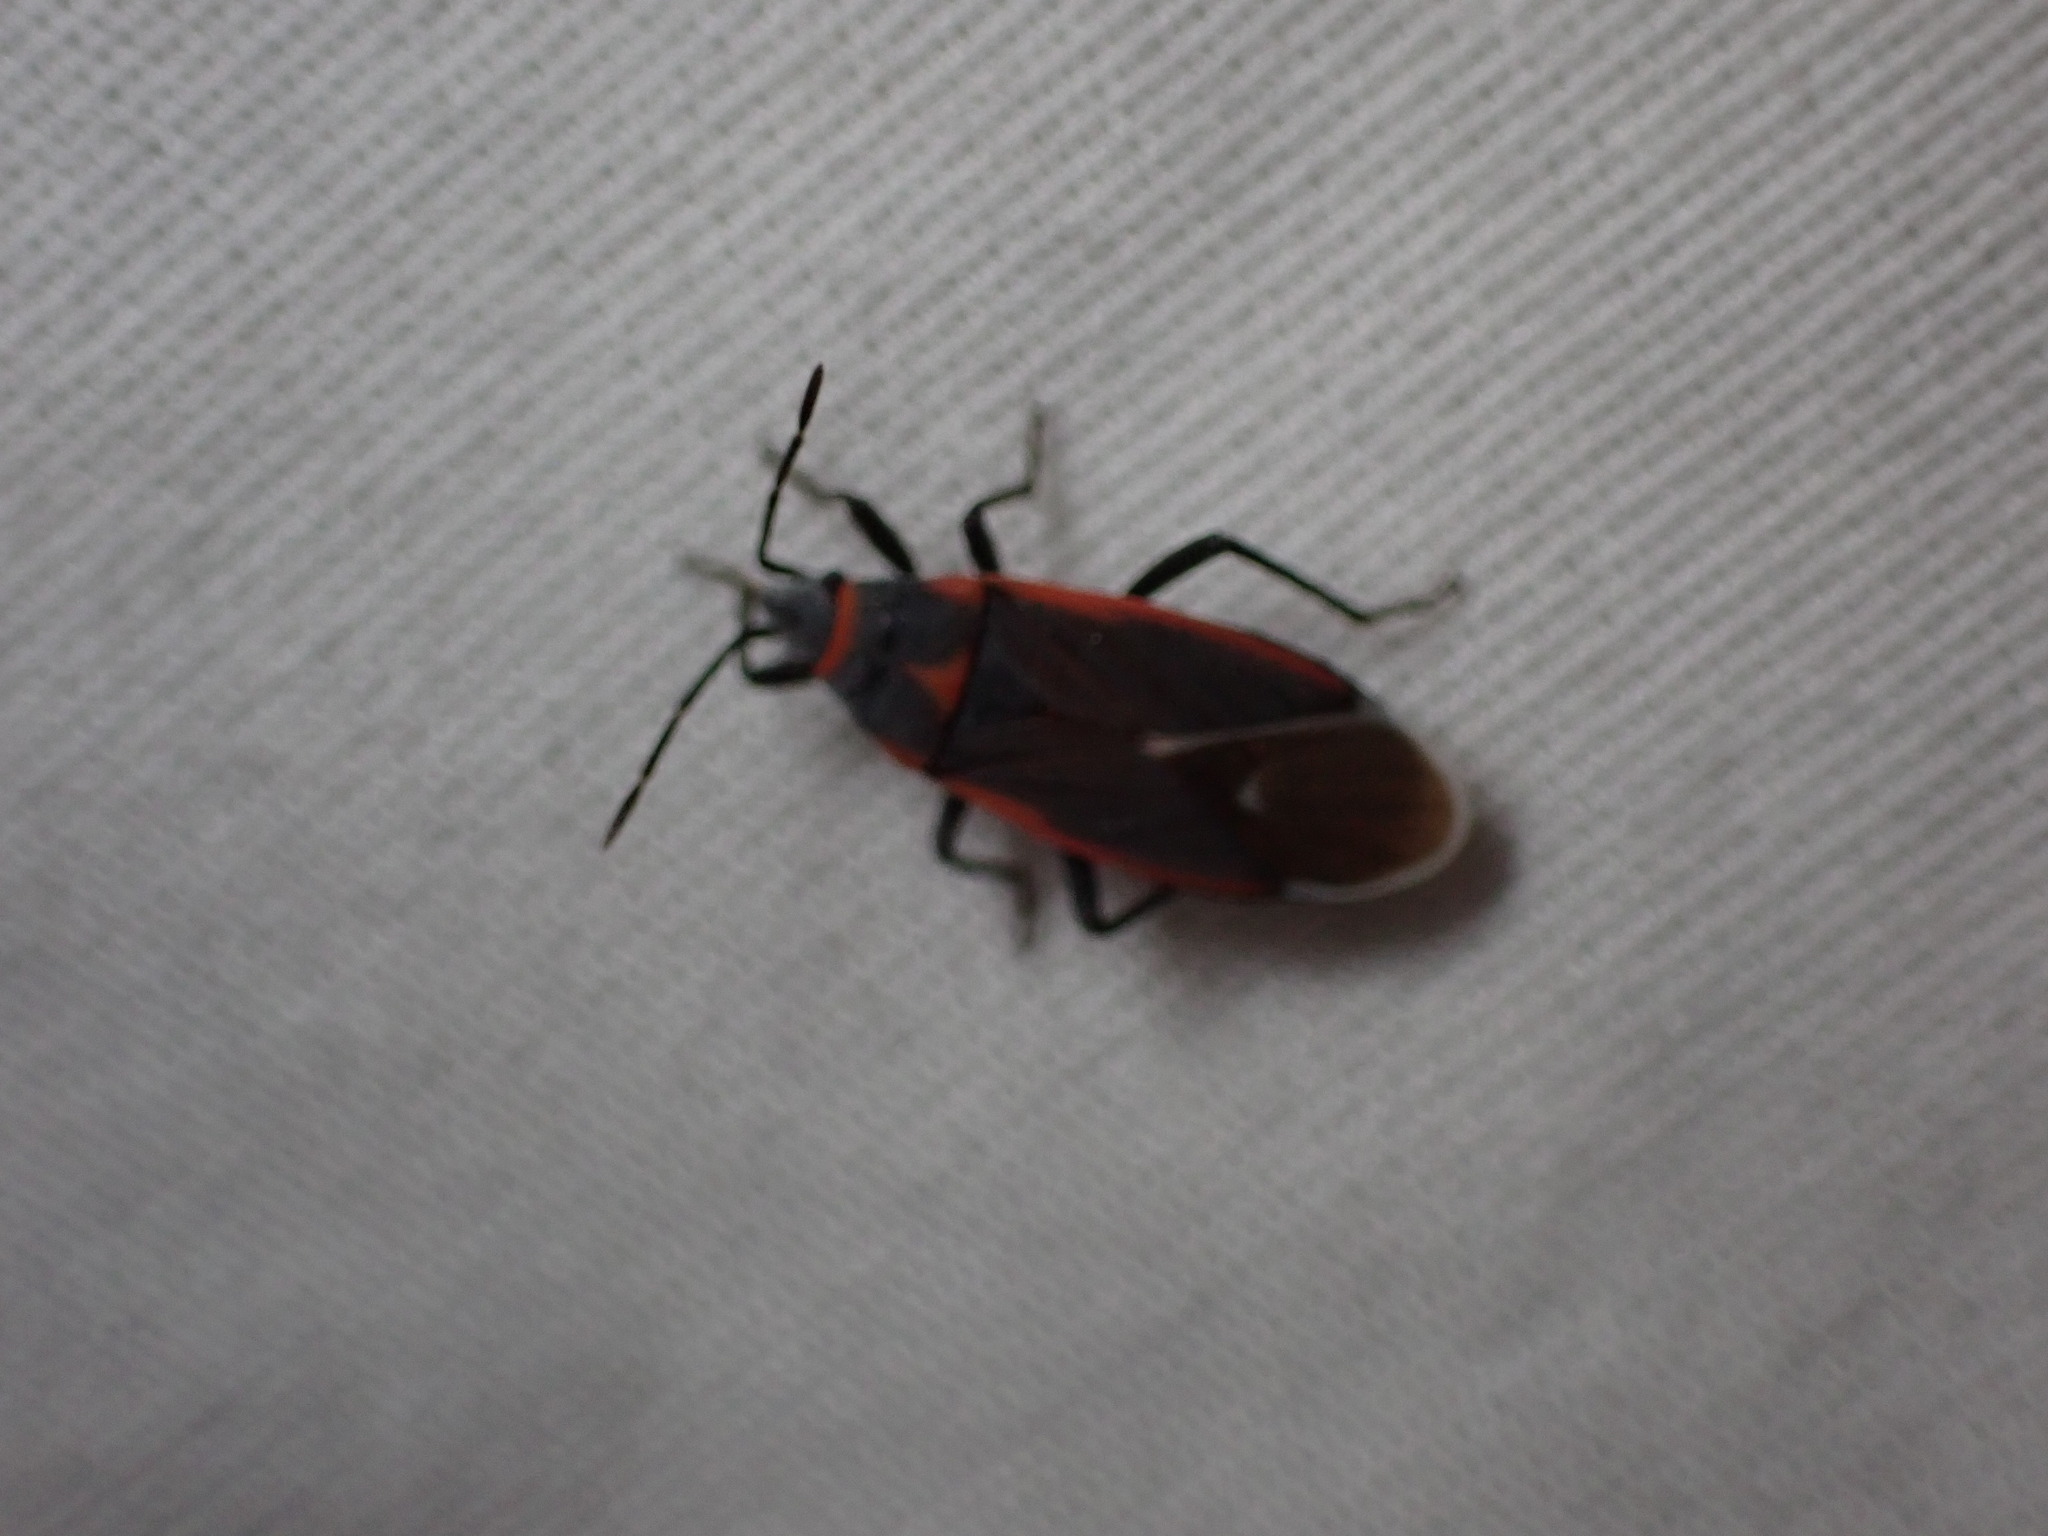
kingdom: Animalia
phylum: Arthropoda
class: Insecta
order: Hemiptera
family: Lygaeidae
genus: Melacoryphus
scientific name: Melacoryphus lateralis
